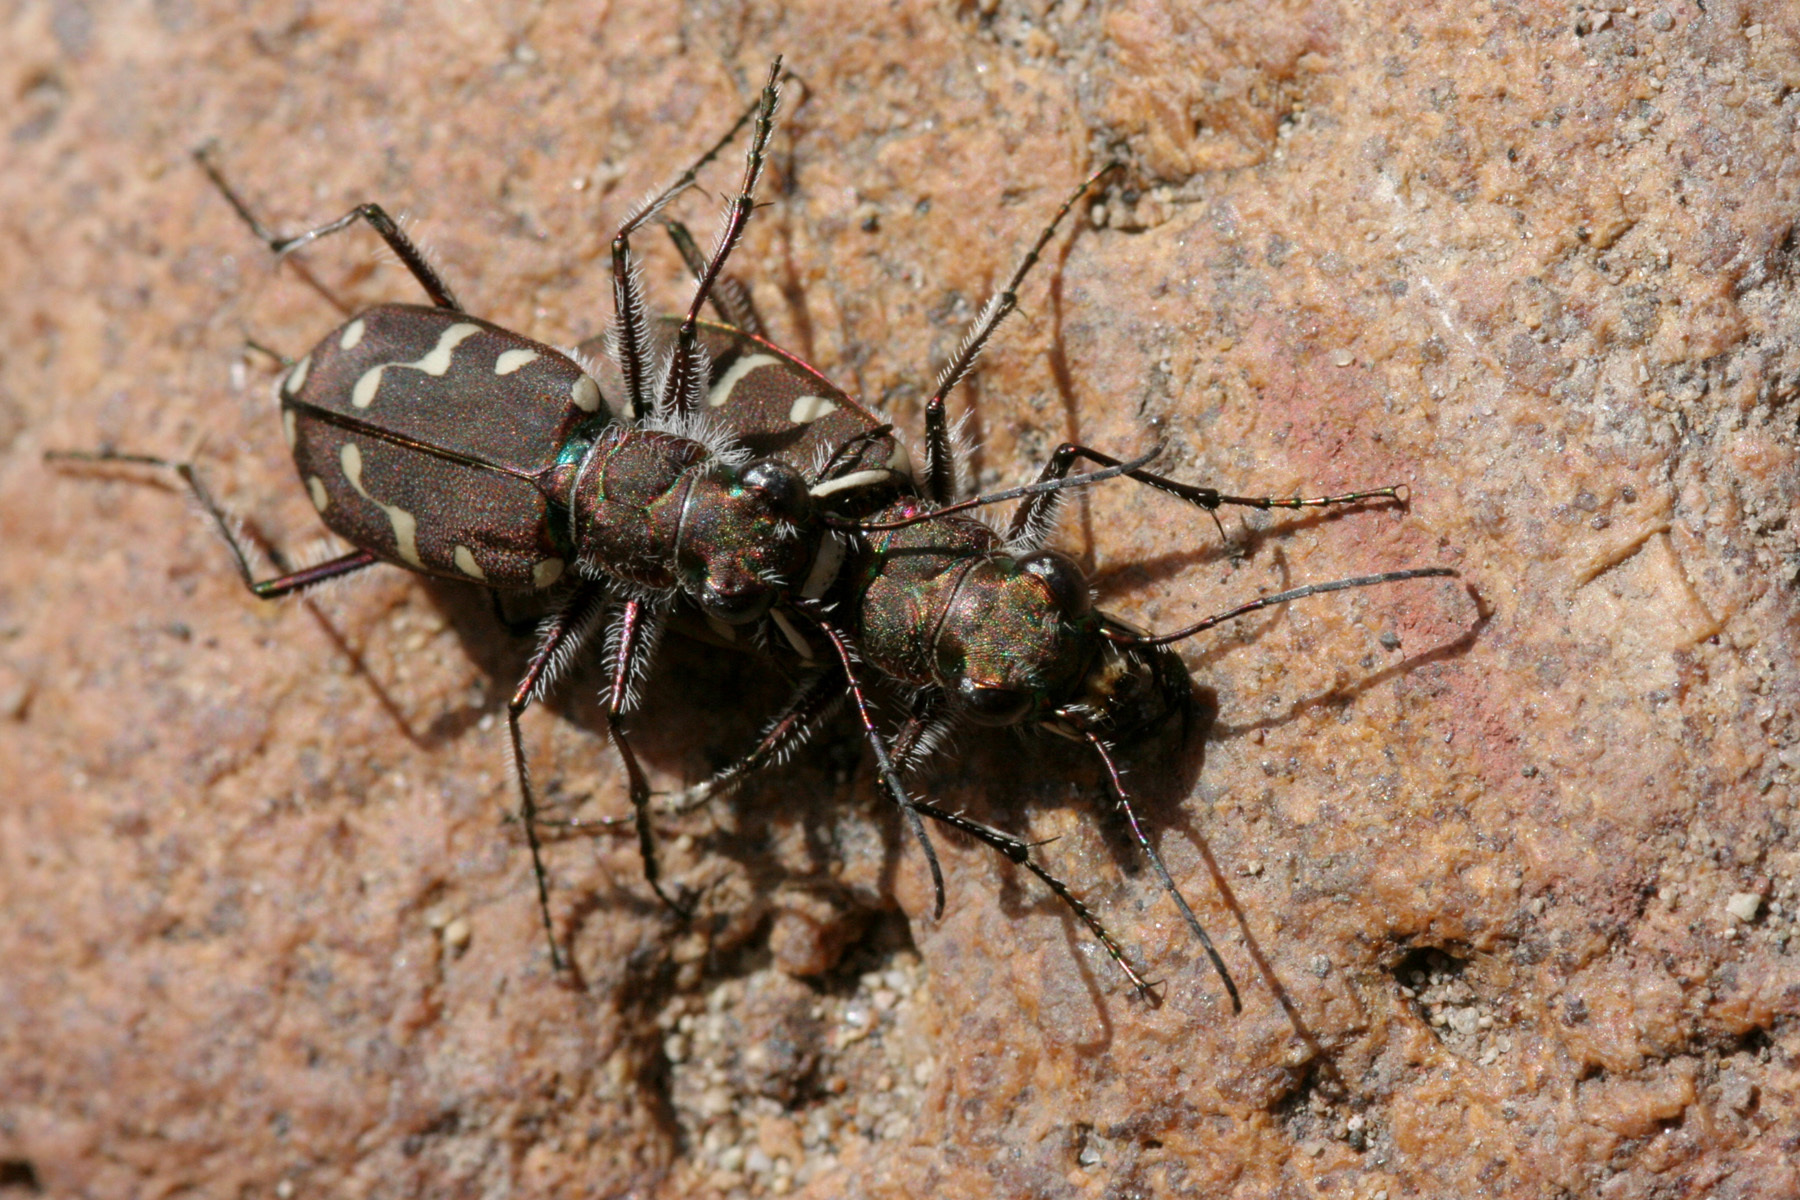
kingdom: Animalia
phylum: Arthropoda
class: Insecta
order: Coleoptera
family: Carabidae
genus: Cicindela
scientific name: Cicindela oregona
